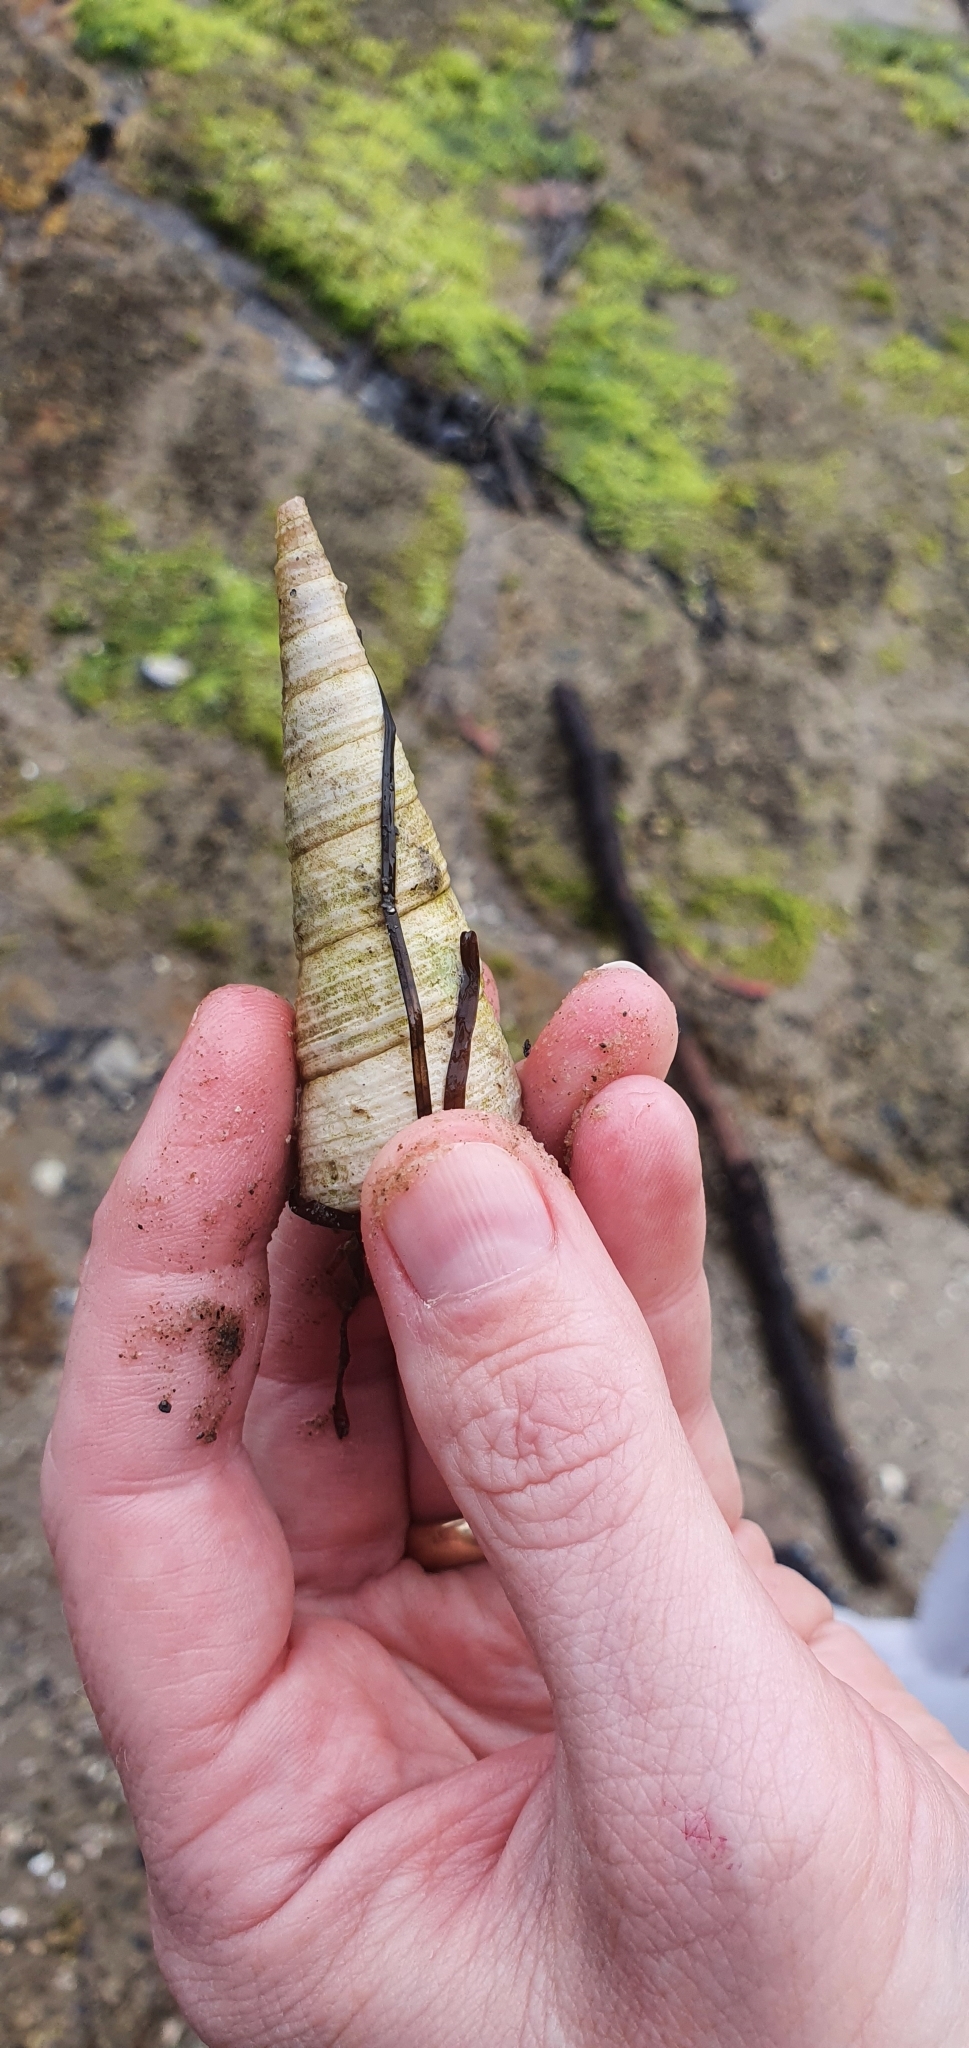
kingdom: Animalia
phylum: Mollusca
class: Gastropoda
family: Turritellidae
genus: Maoricolpus
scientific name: Maoricolpus roseus
